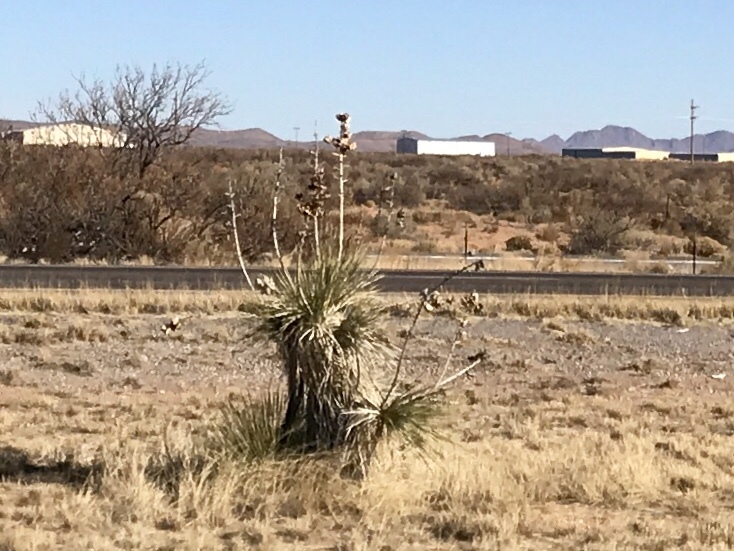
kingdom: Plantae
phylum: Tracheophyta
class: Liliopsida
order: Asparagales
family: Asparagaceae
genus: Yucca
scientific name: Yucca elata
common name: Palmella
